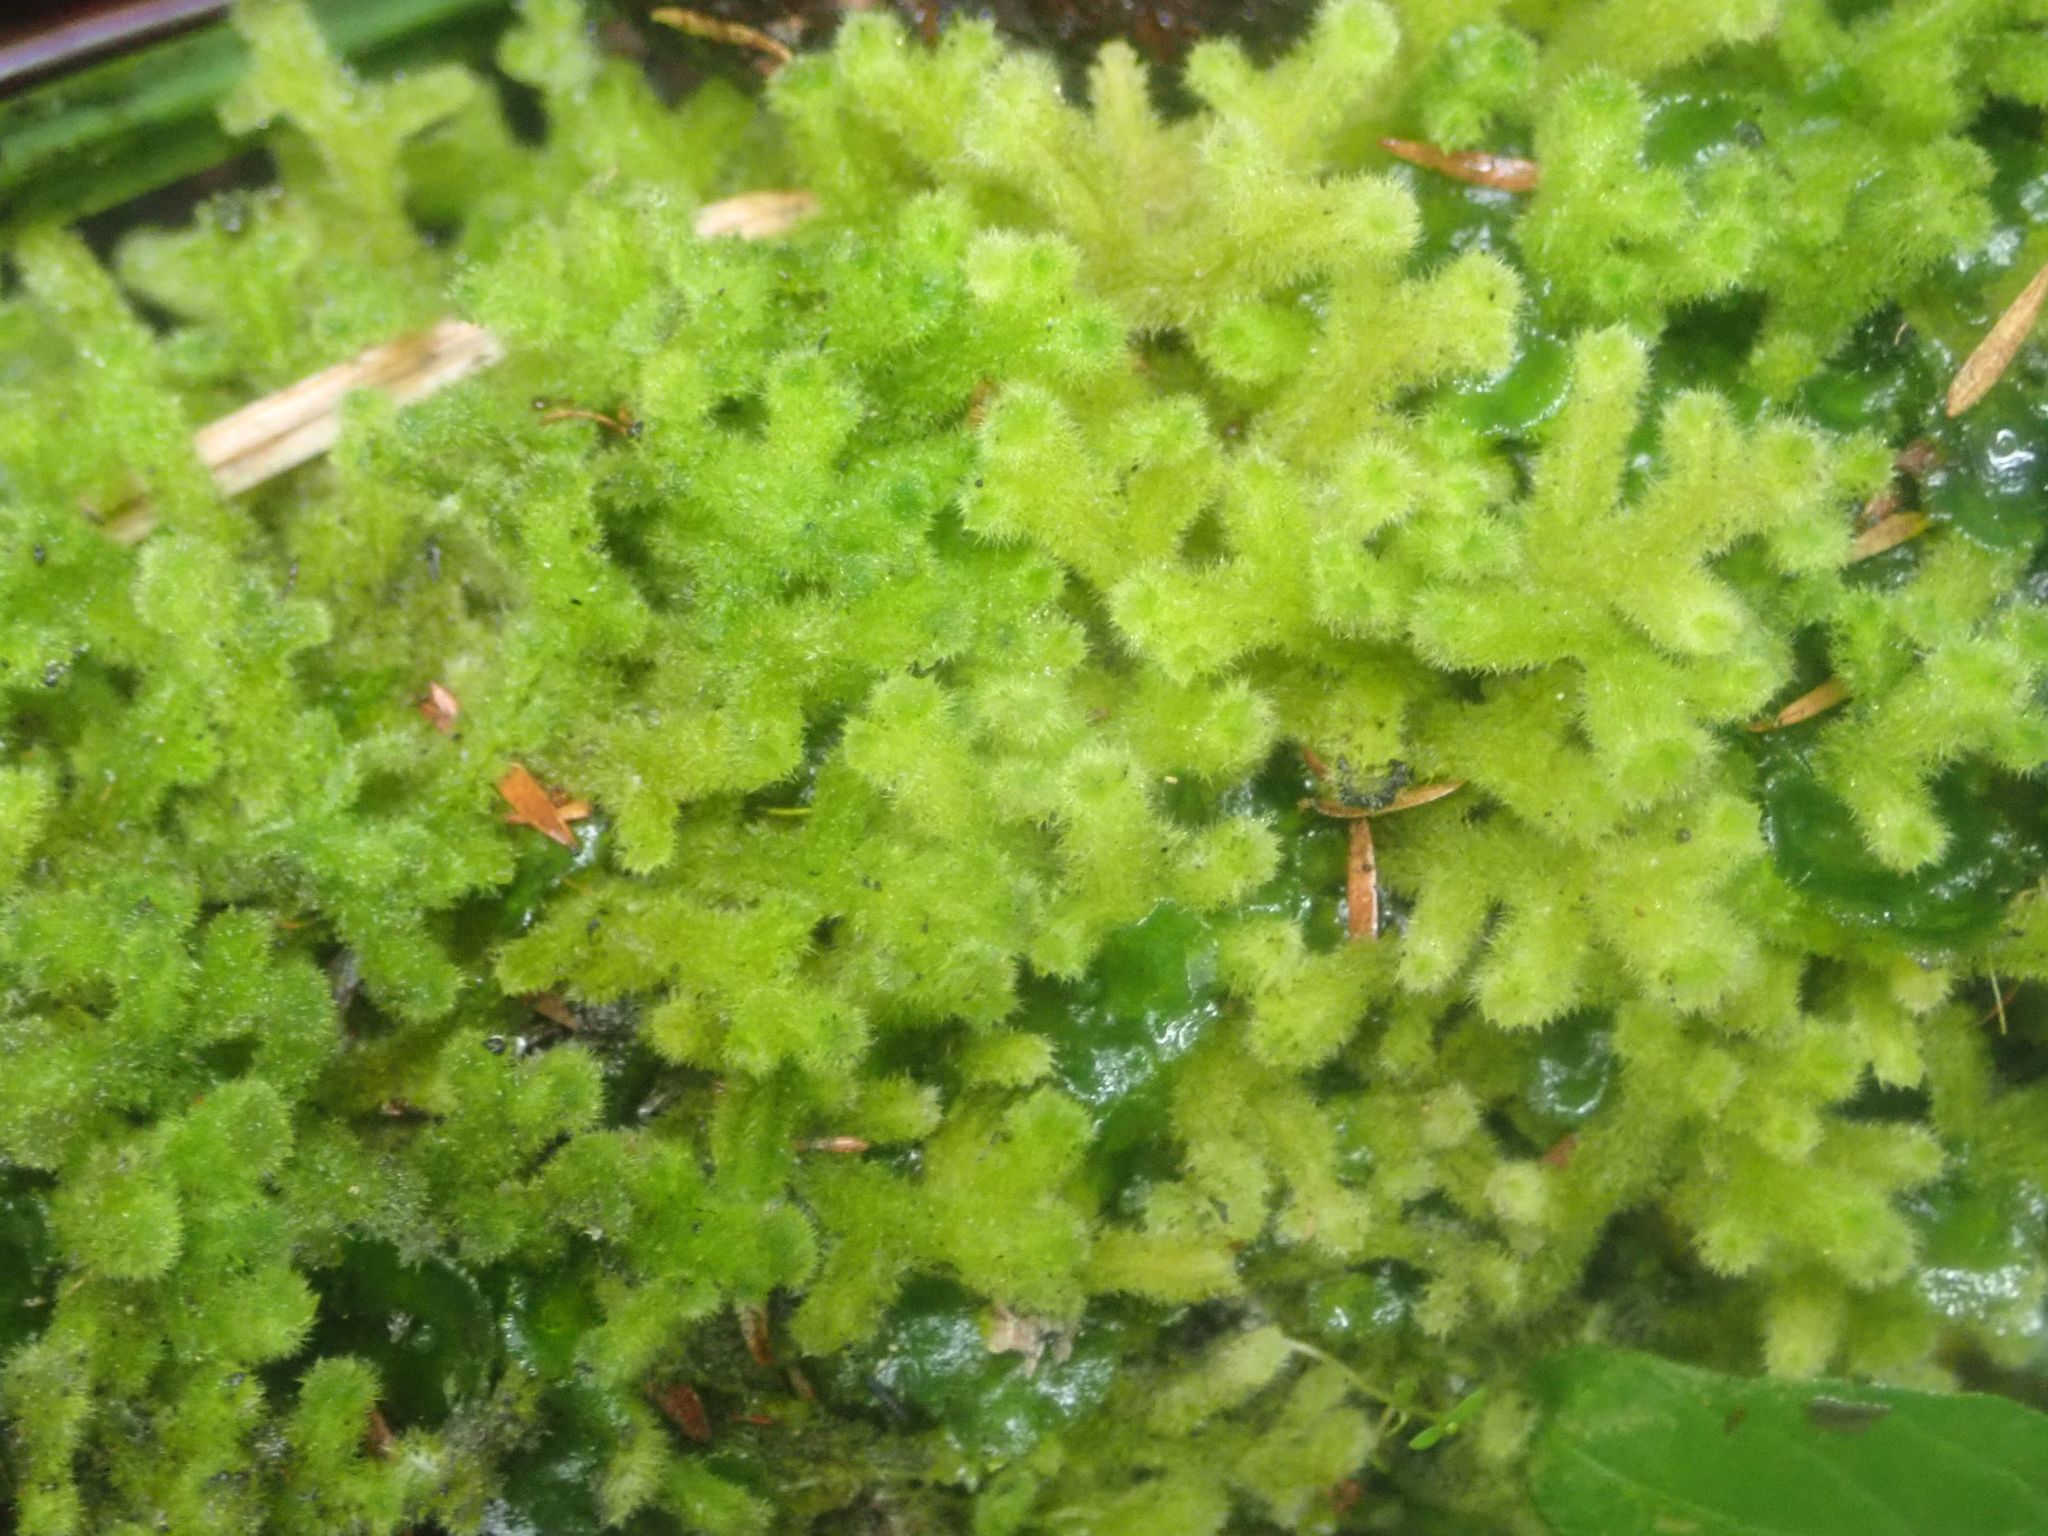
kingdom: Plantae
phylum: Marchantiophyta
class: Jungermanniopsida
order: Jungermanniales
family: Trichocoleaceae
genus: Leiomitra
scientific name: Leiomitra lanata
